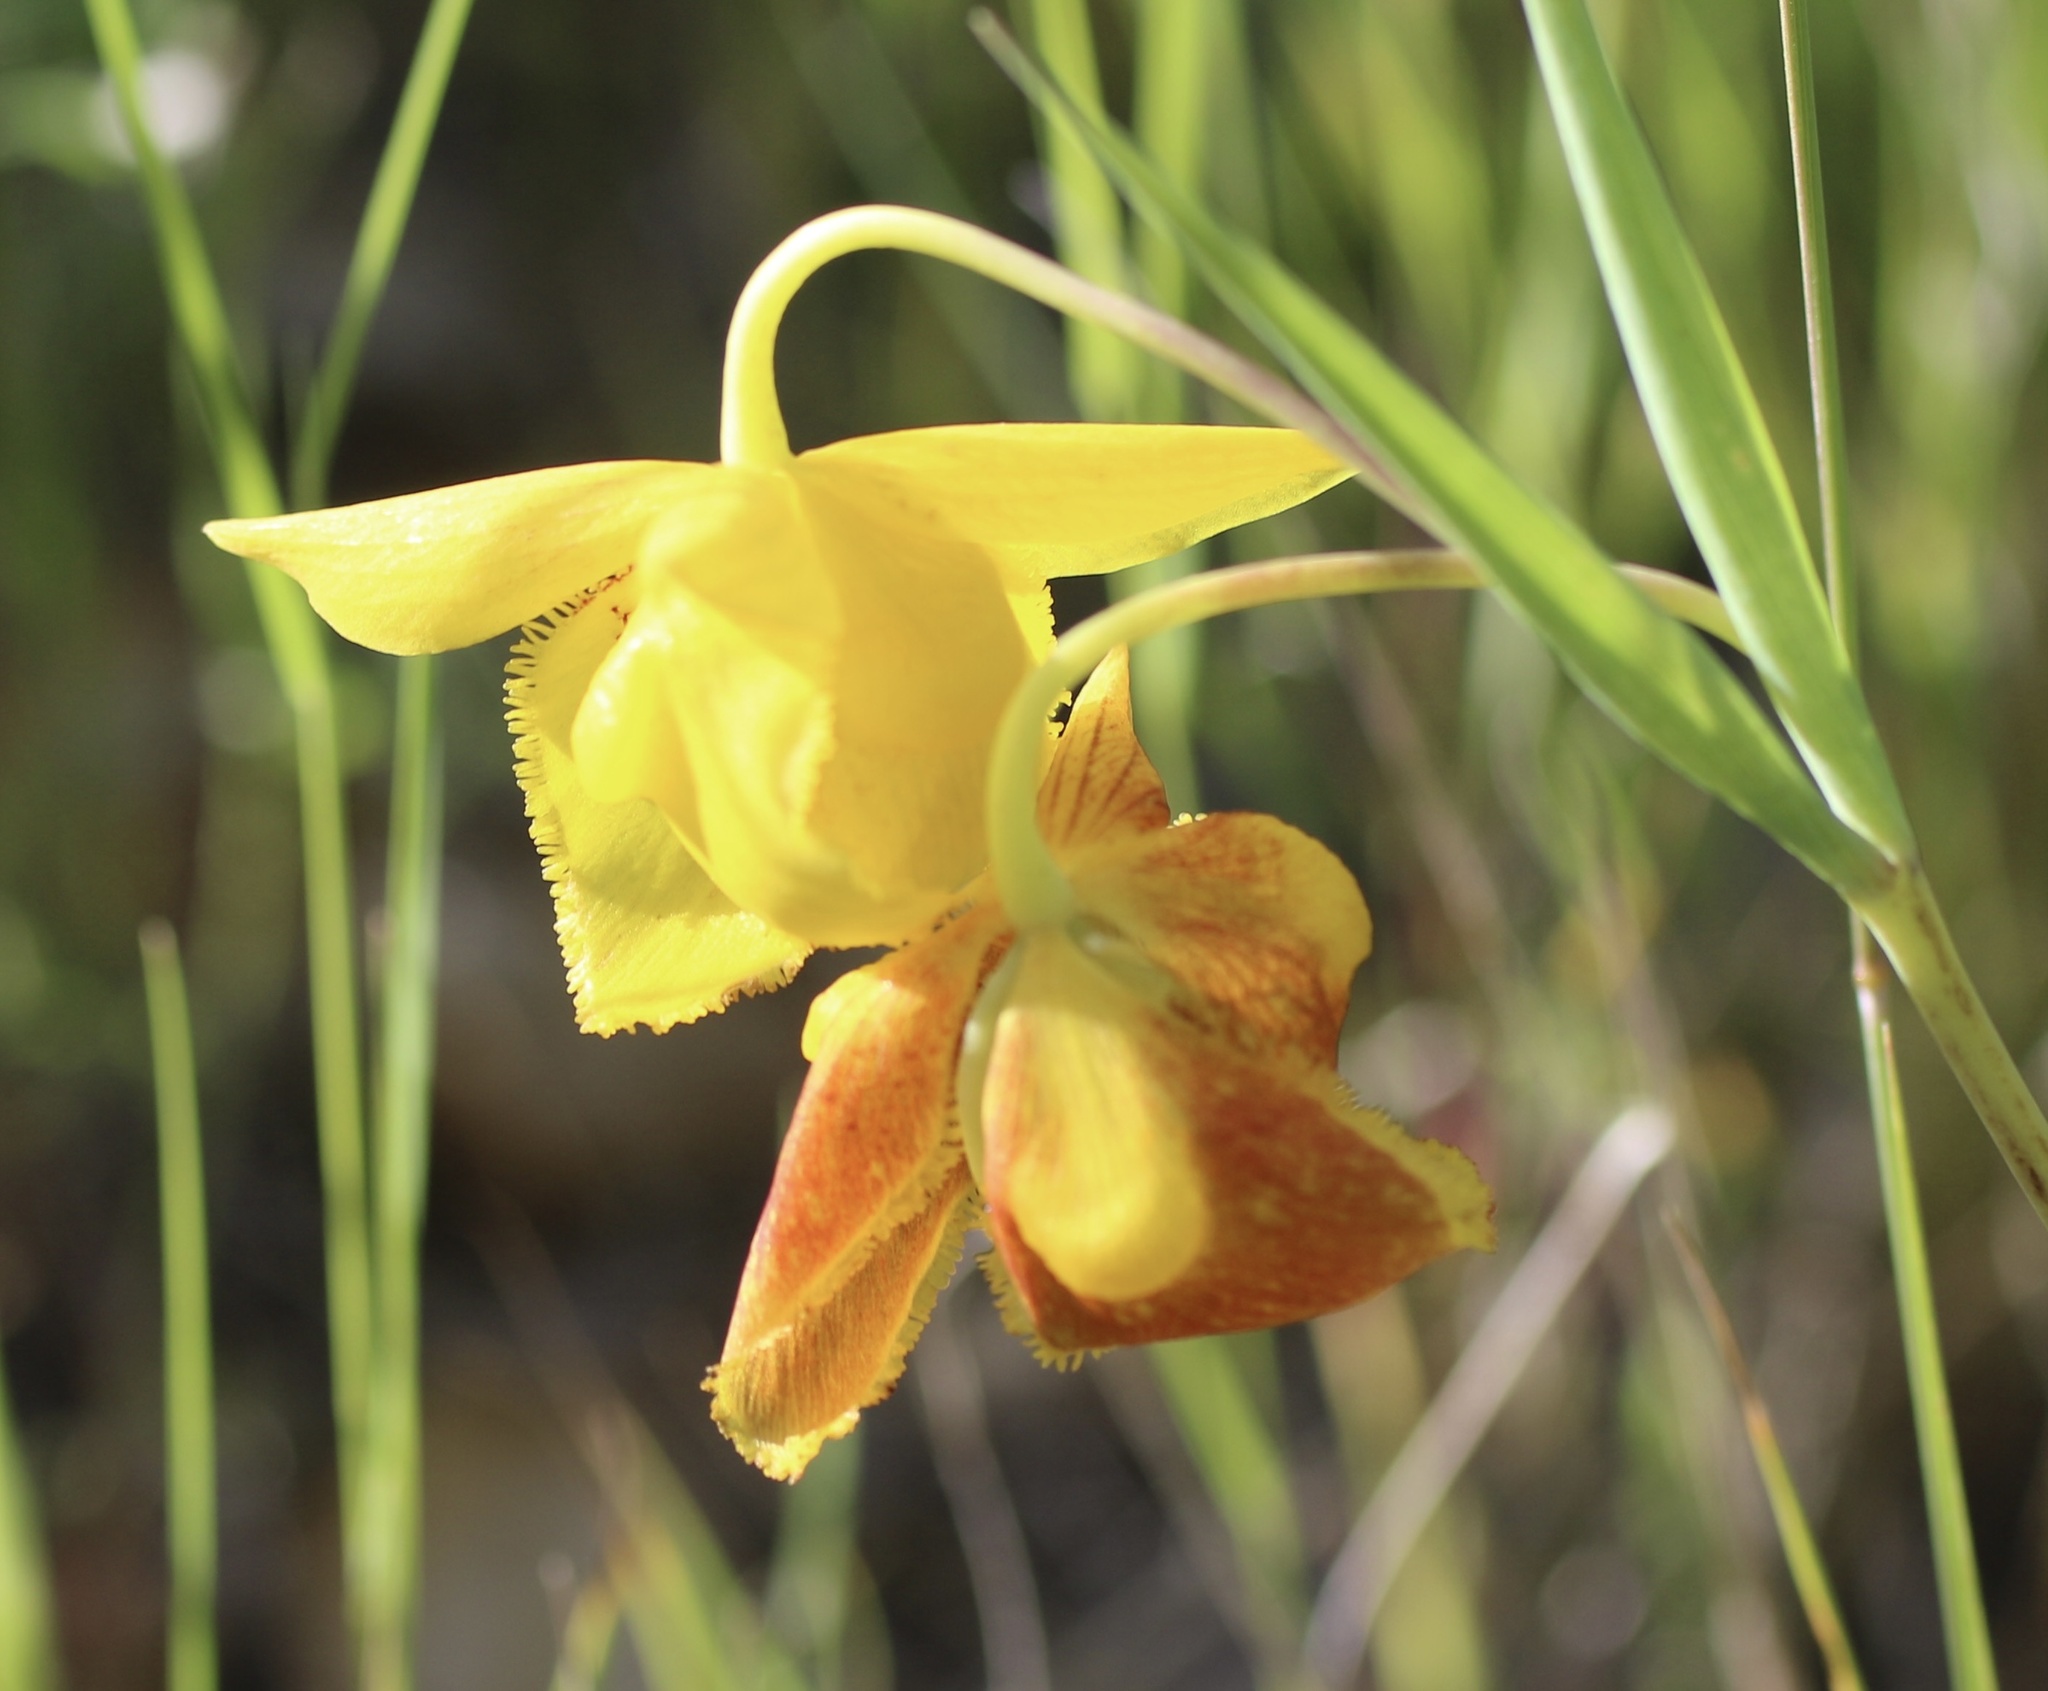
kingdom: Plantae
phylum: Tracheophyta
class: Liliopsida
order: Liliales
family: Liliaceae
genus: Calochortus
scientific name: Calochortus amabilis
